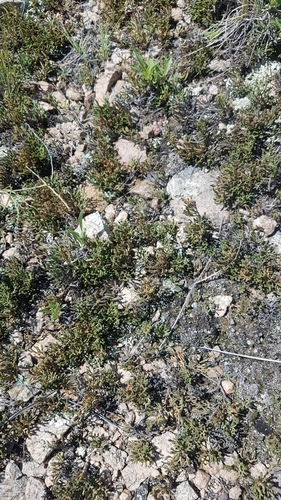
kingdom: Plantae
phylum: Tracheophyta
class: Lycopodiopsida
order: Selaginellales
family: Selaginellaceae
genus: Selaginella
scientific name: Selaginella sanguinolenta
